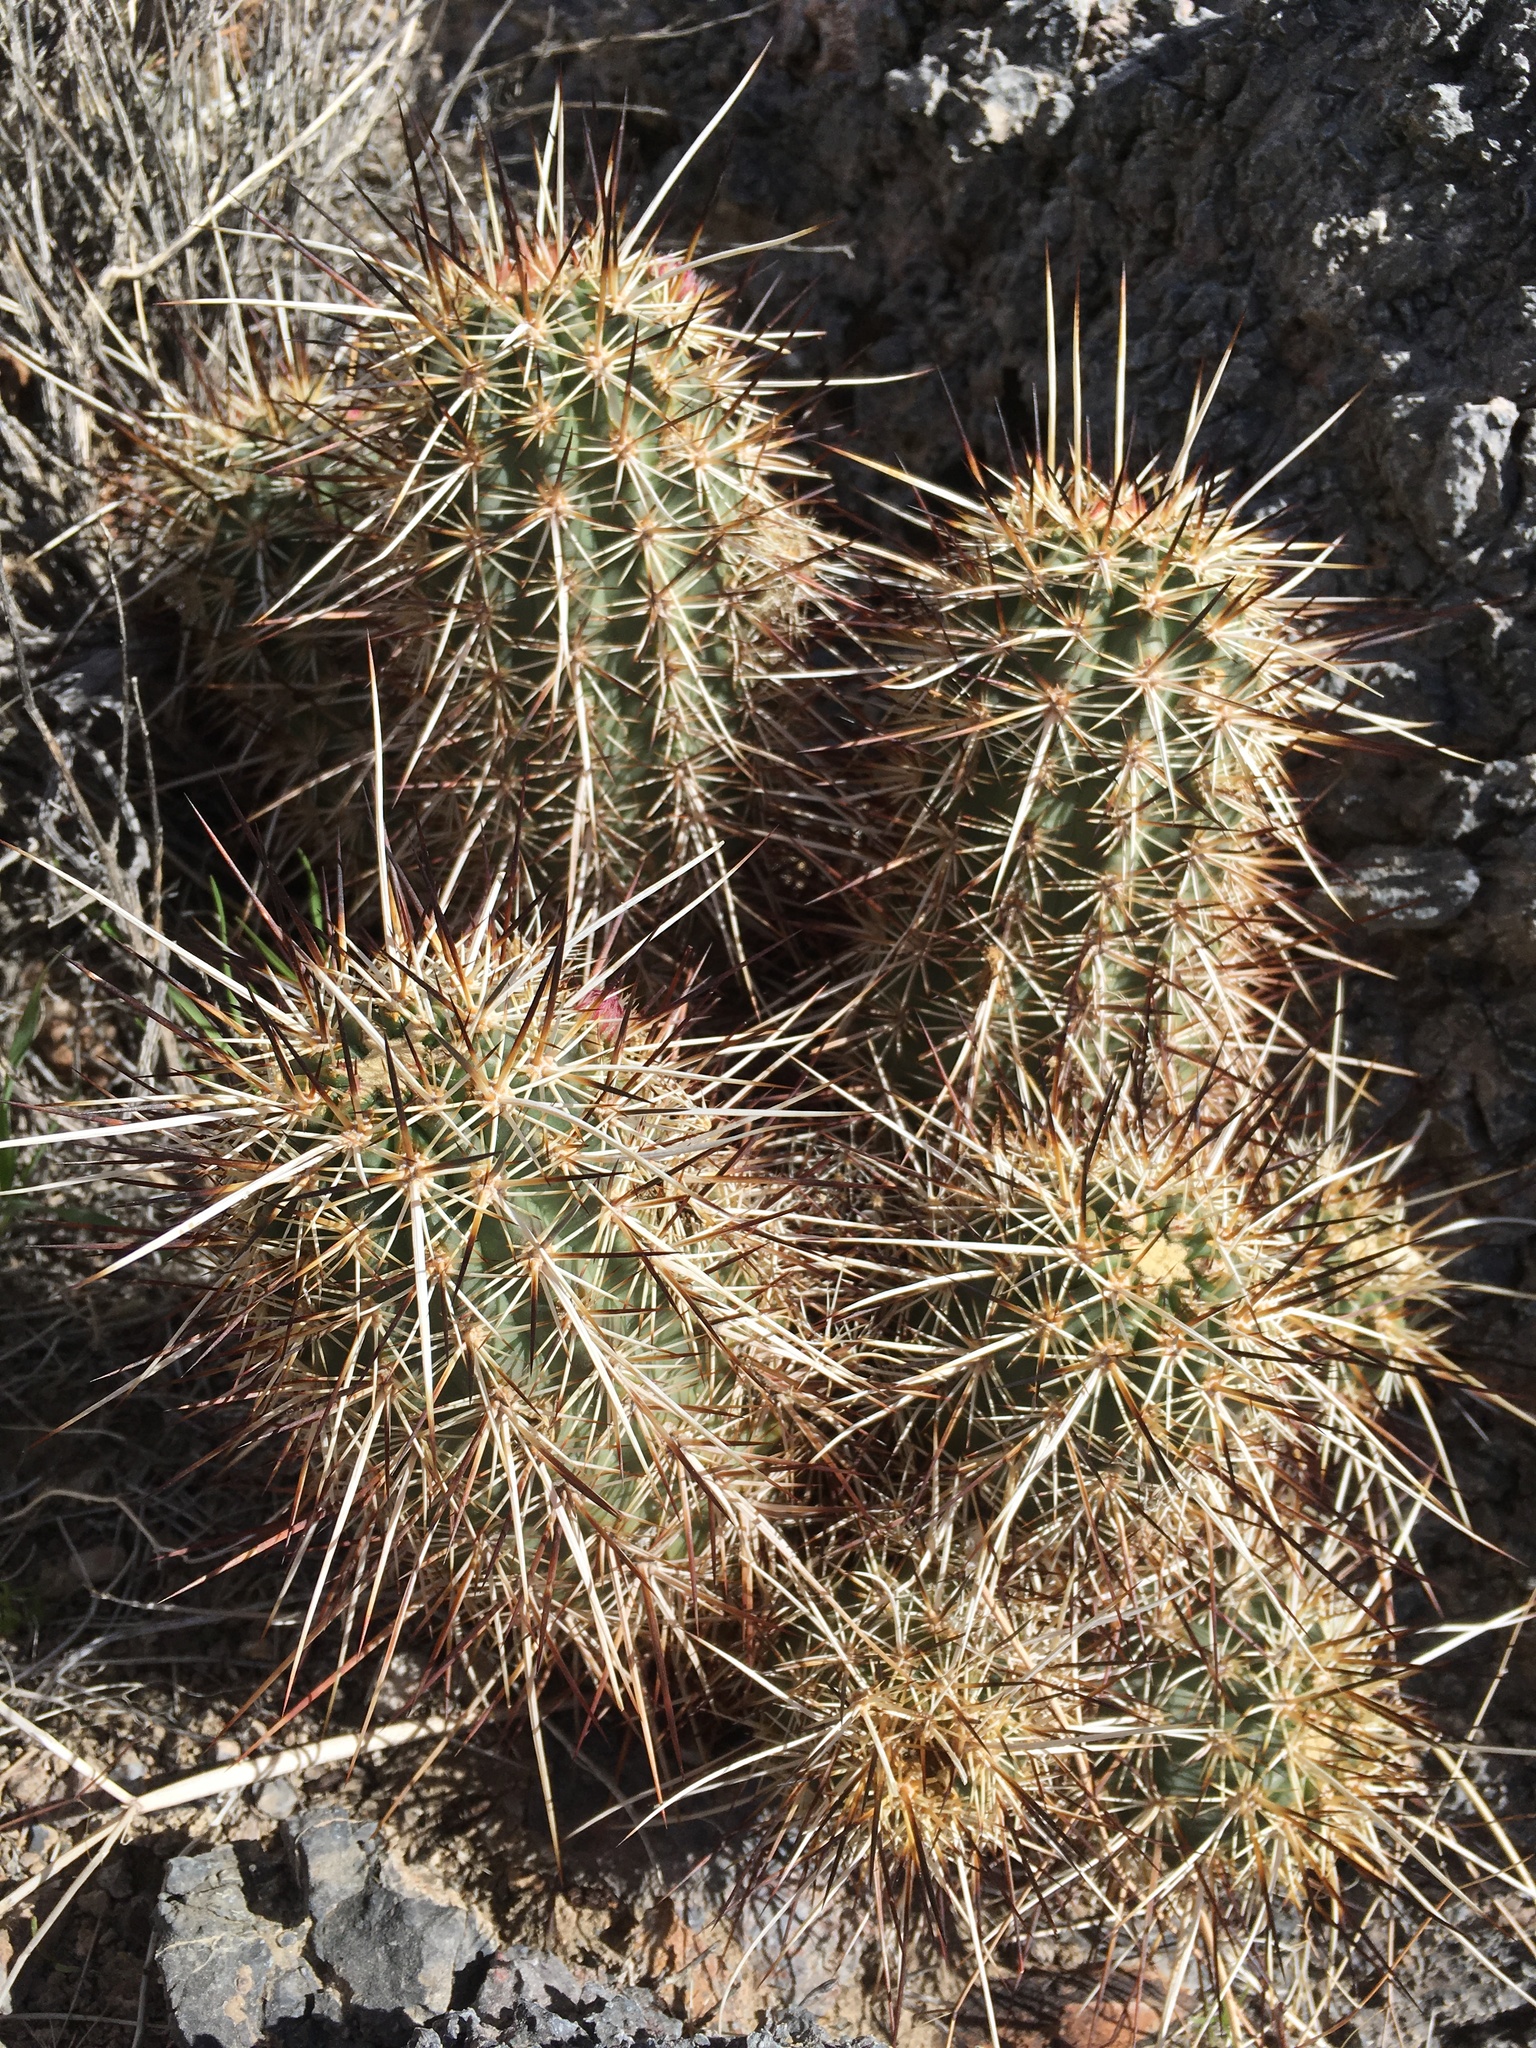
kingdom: Plantae
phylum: Tracheophyta
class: Magnoliopsida
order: Caryophyllales
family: Cactaceae
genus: Echinocereus
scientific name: Echinocereus engelmannii
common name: Engelmann's hedgehog cactus
